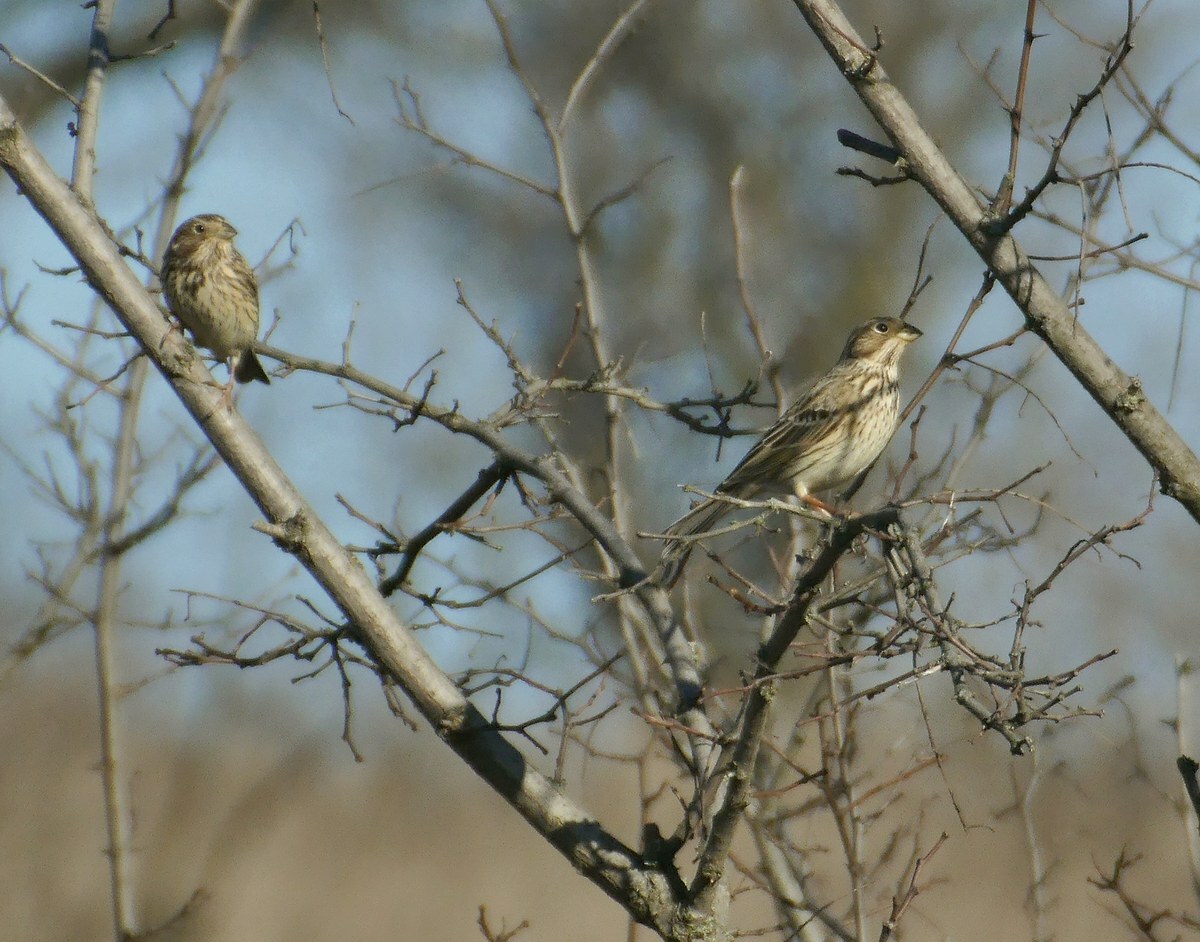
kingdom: Animalia
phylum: Chordata
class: Aves
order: Passeriformes
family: Emberizidae
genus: Emberiza
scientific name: Emberiza calandra
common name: Corn bunting
